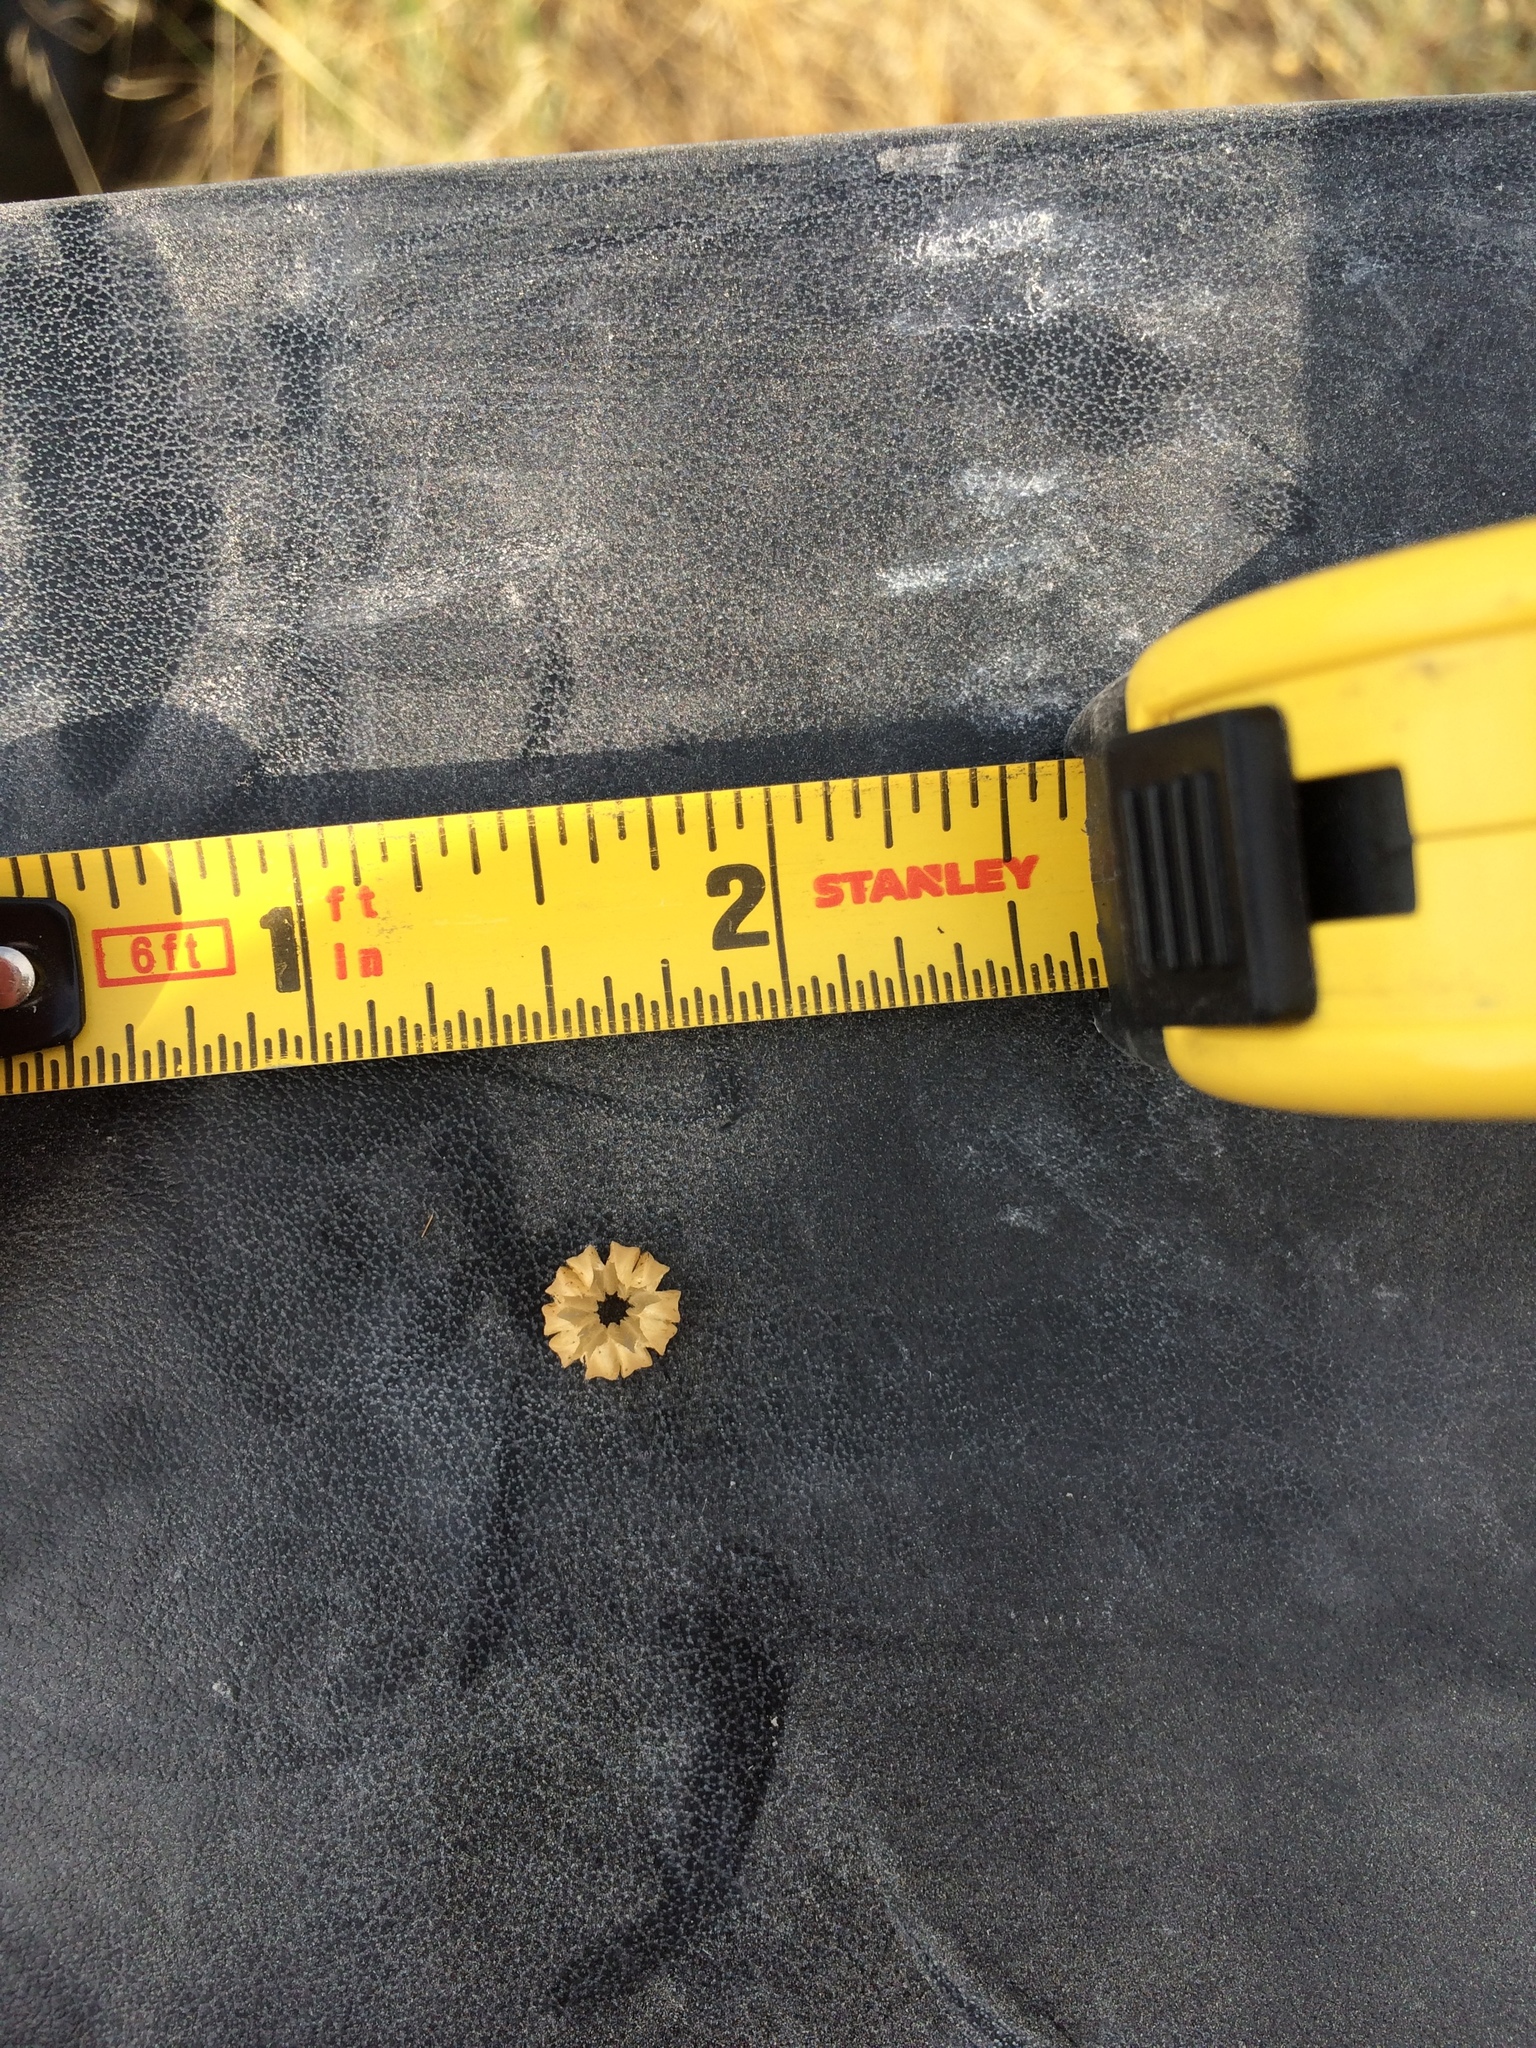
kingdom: Plantae
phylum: Tracheophyta
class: Magnoliopsida
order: Malpighiales
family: Linaceae
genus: Linum
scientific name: Linum lewisii
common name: Prairie flax
